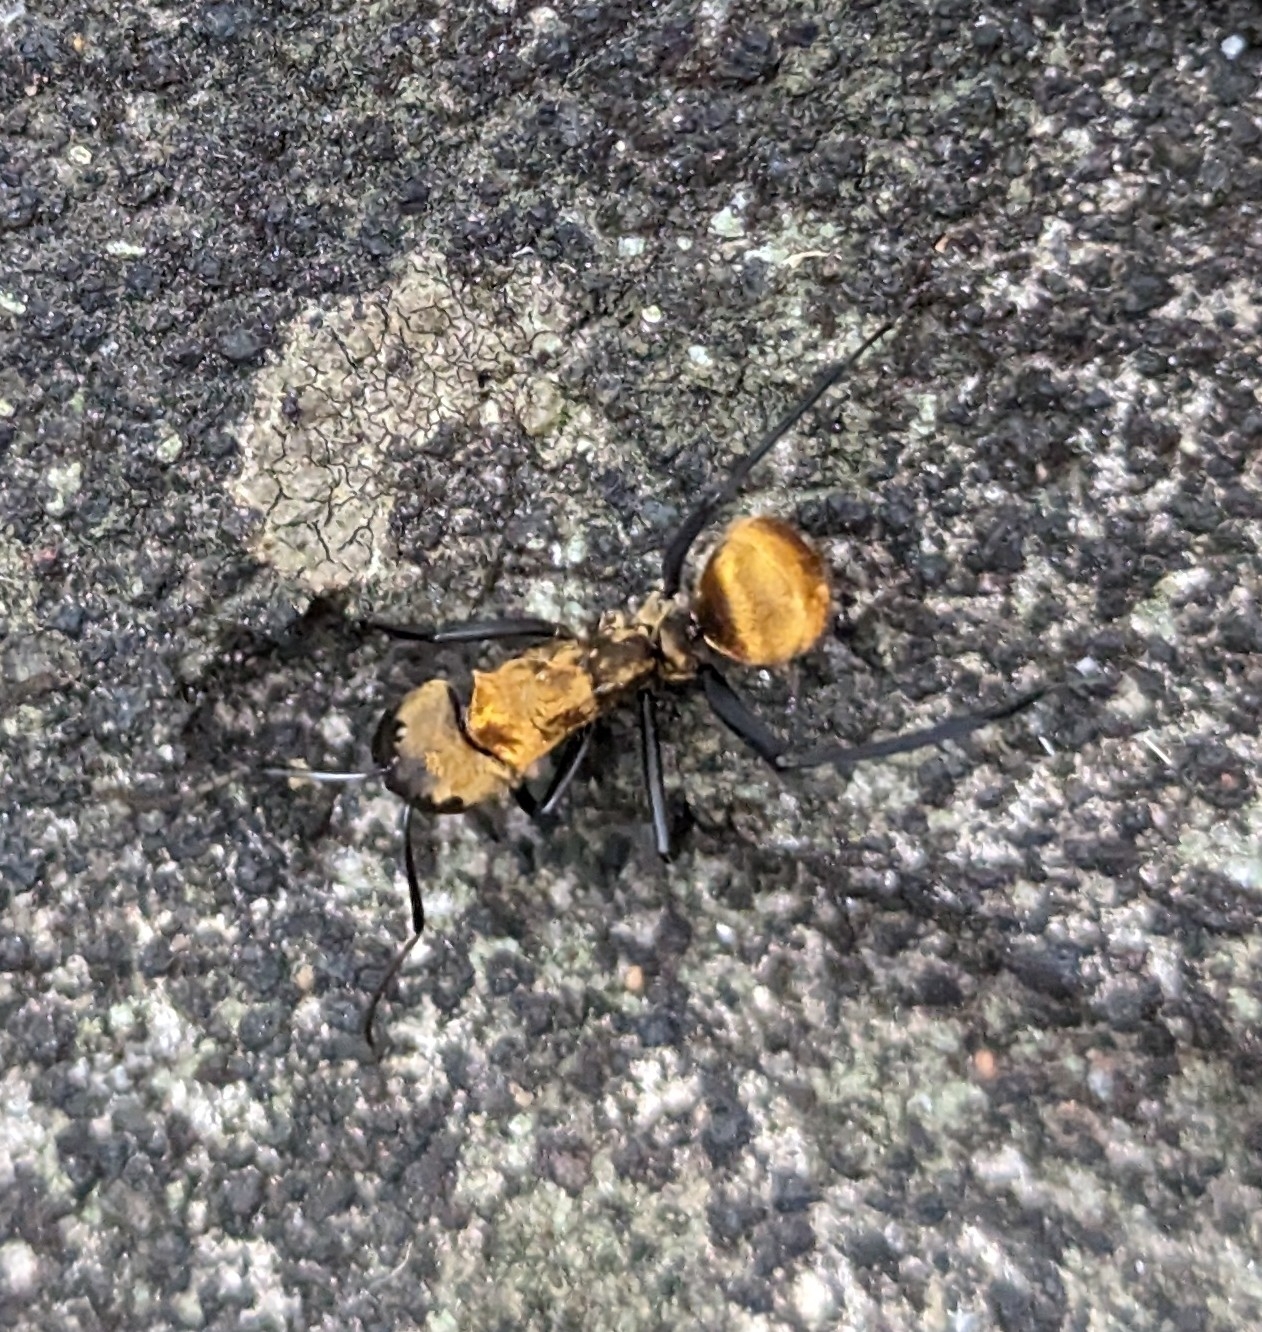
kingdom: Animalia
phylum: Arthropoda
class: Insecta
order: Hymenoptera
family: Formicidae
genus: Camponotus
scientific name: Camponotus sericeiventris
